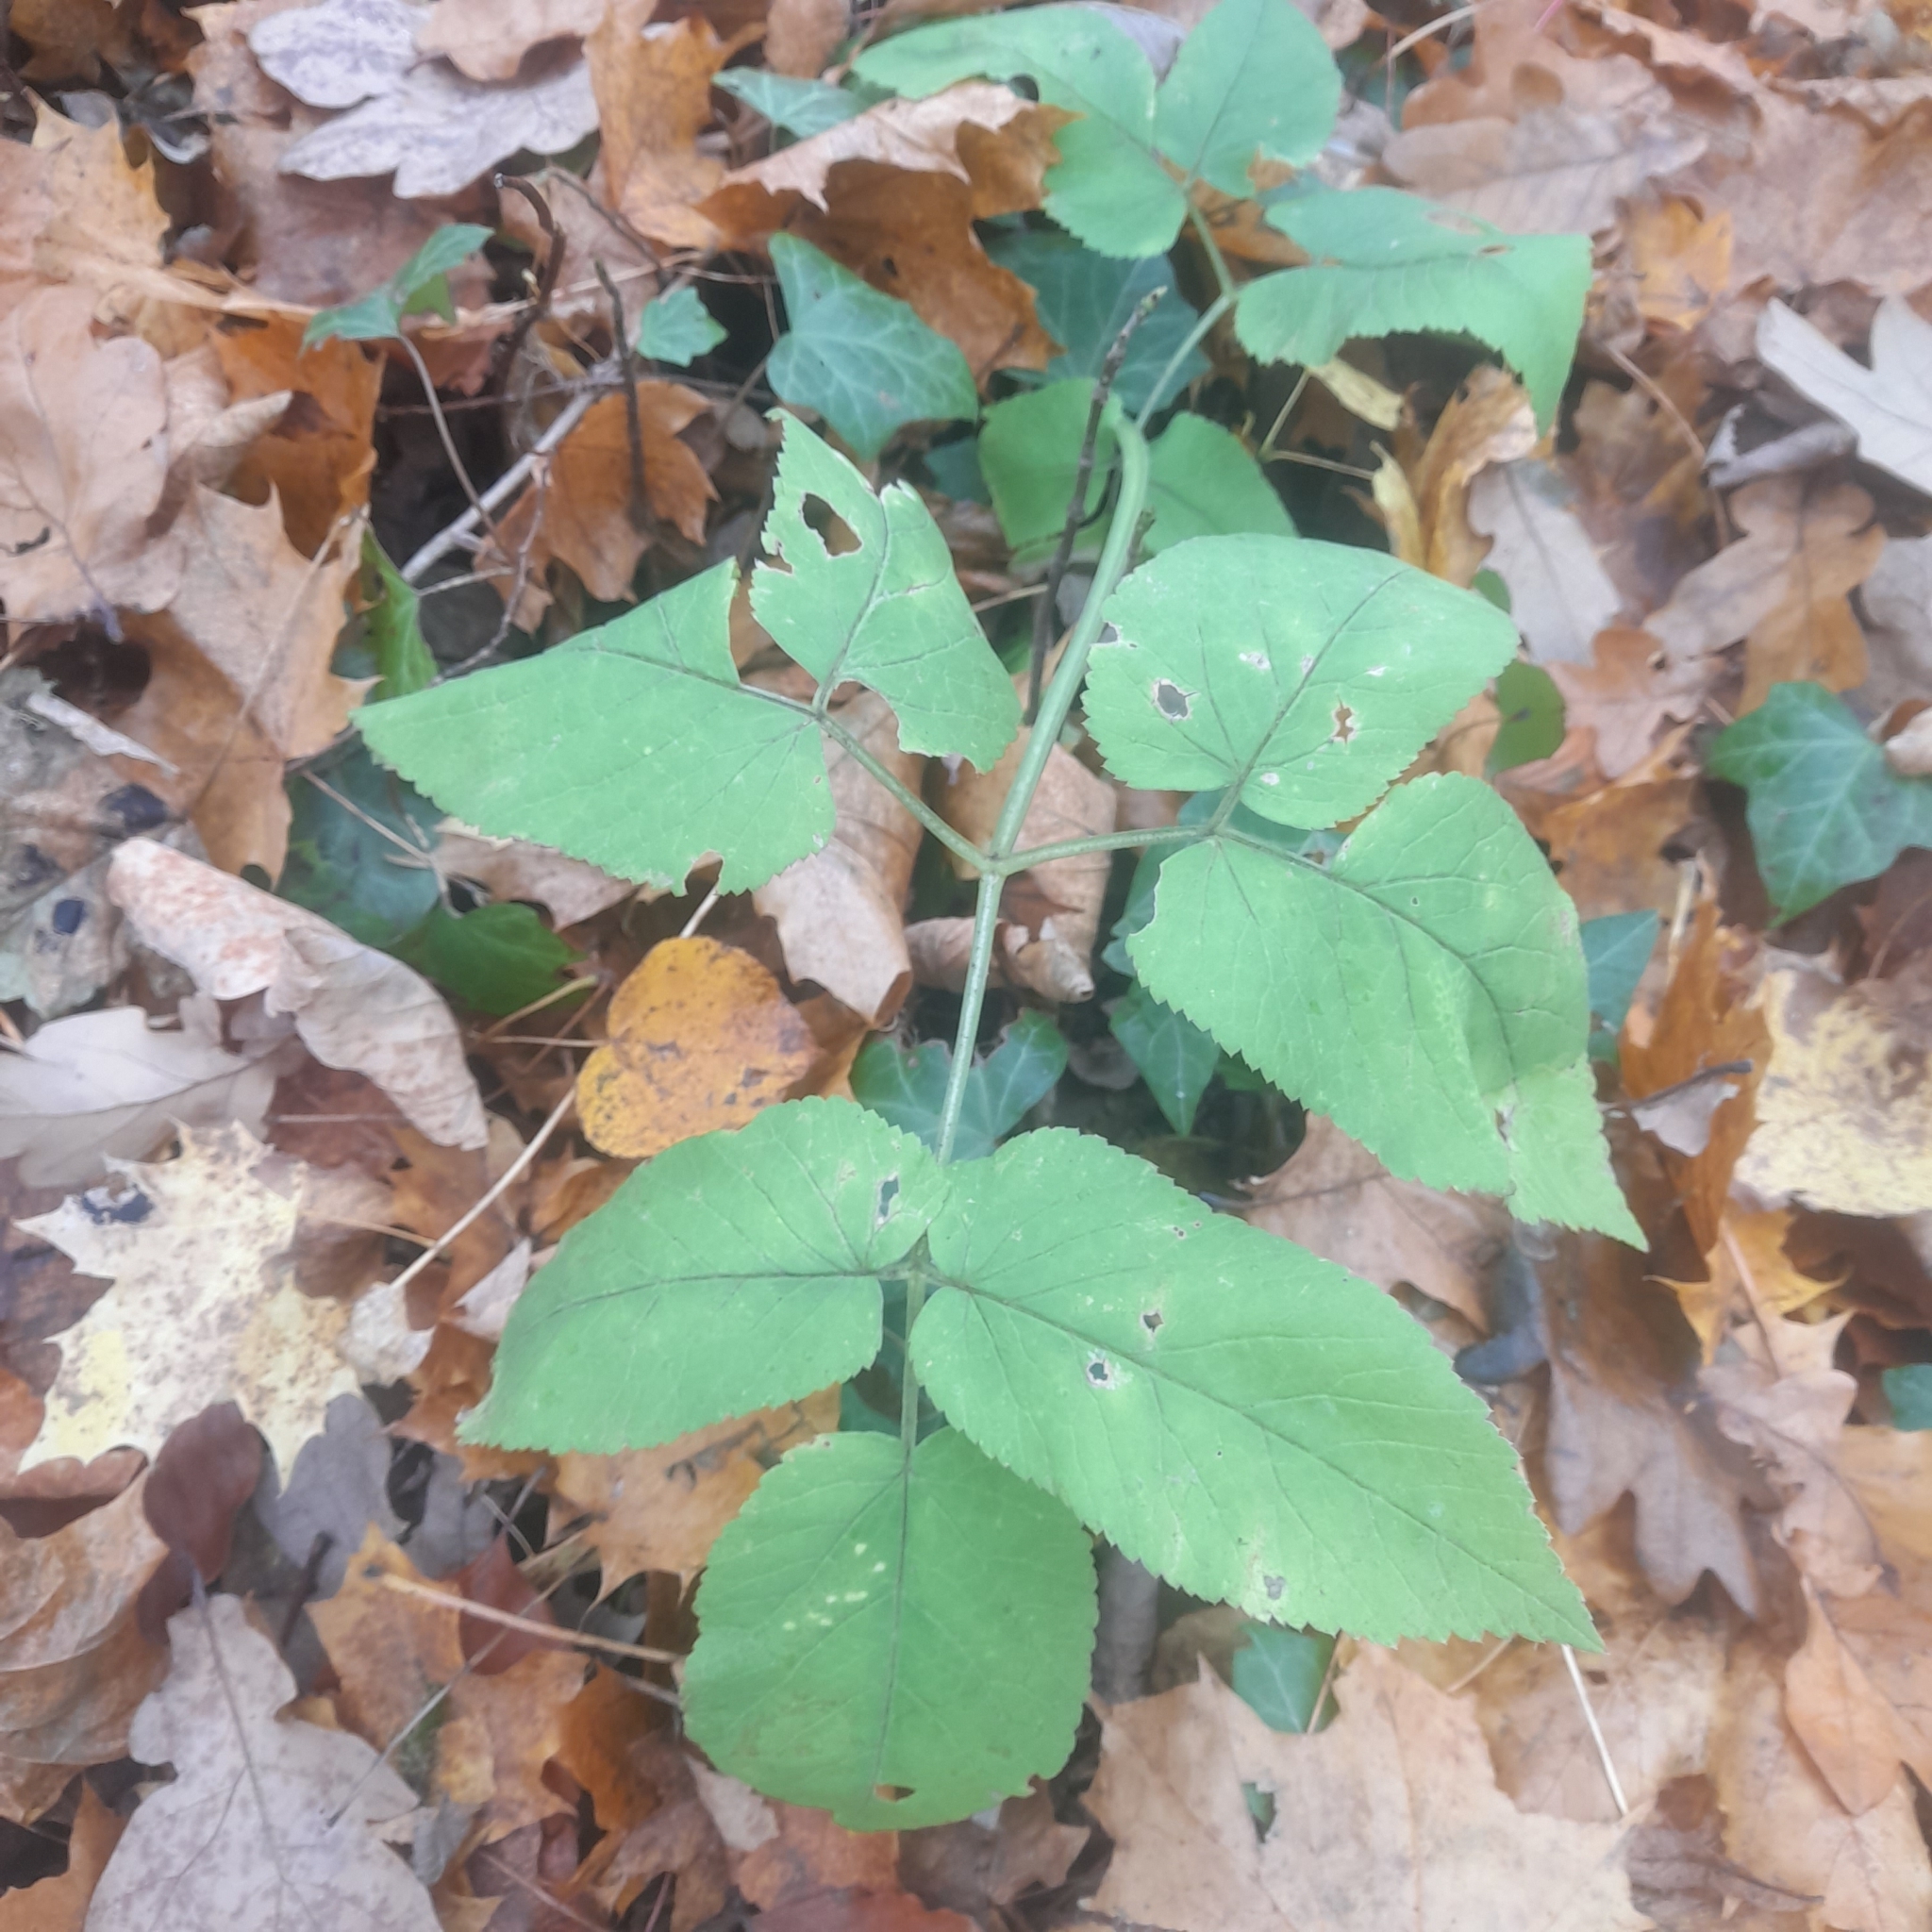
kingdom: Plantae
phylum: Tracheophyta
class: Magnoliopsida
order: Apiales
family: Apiaceae
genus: Aegopodium
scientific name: Aegopodium podagraria
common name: Ground-elder
